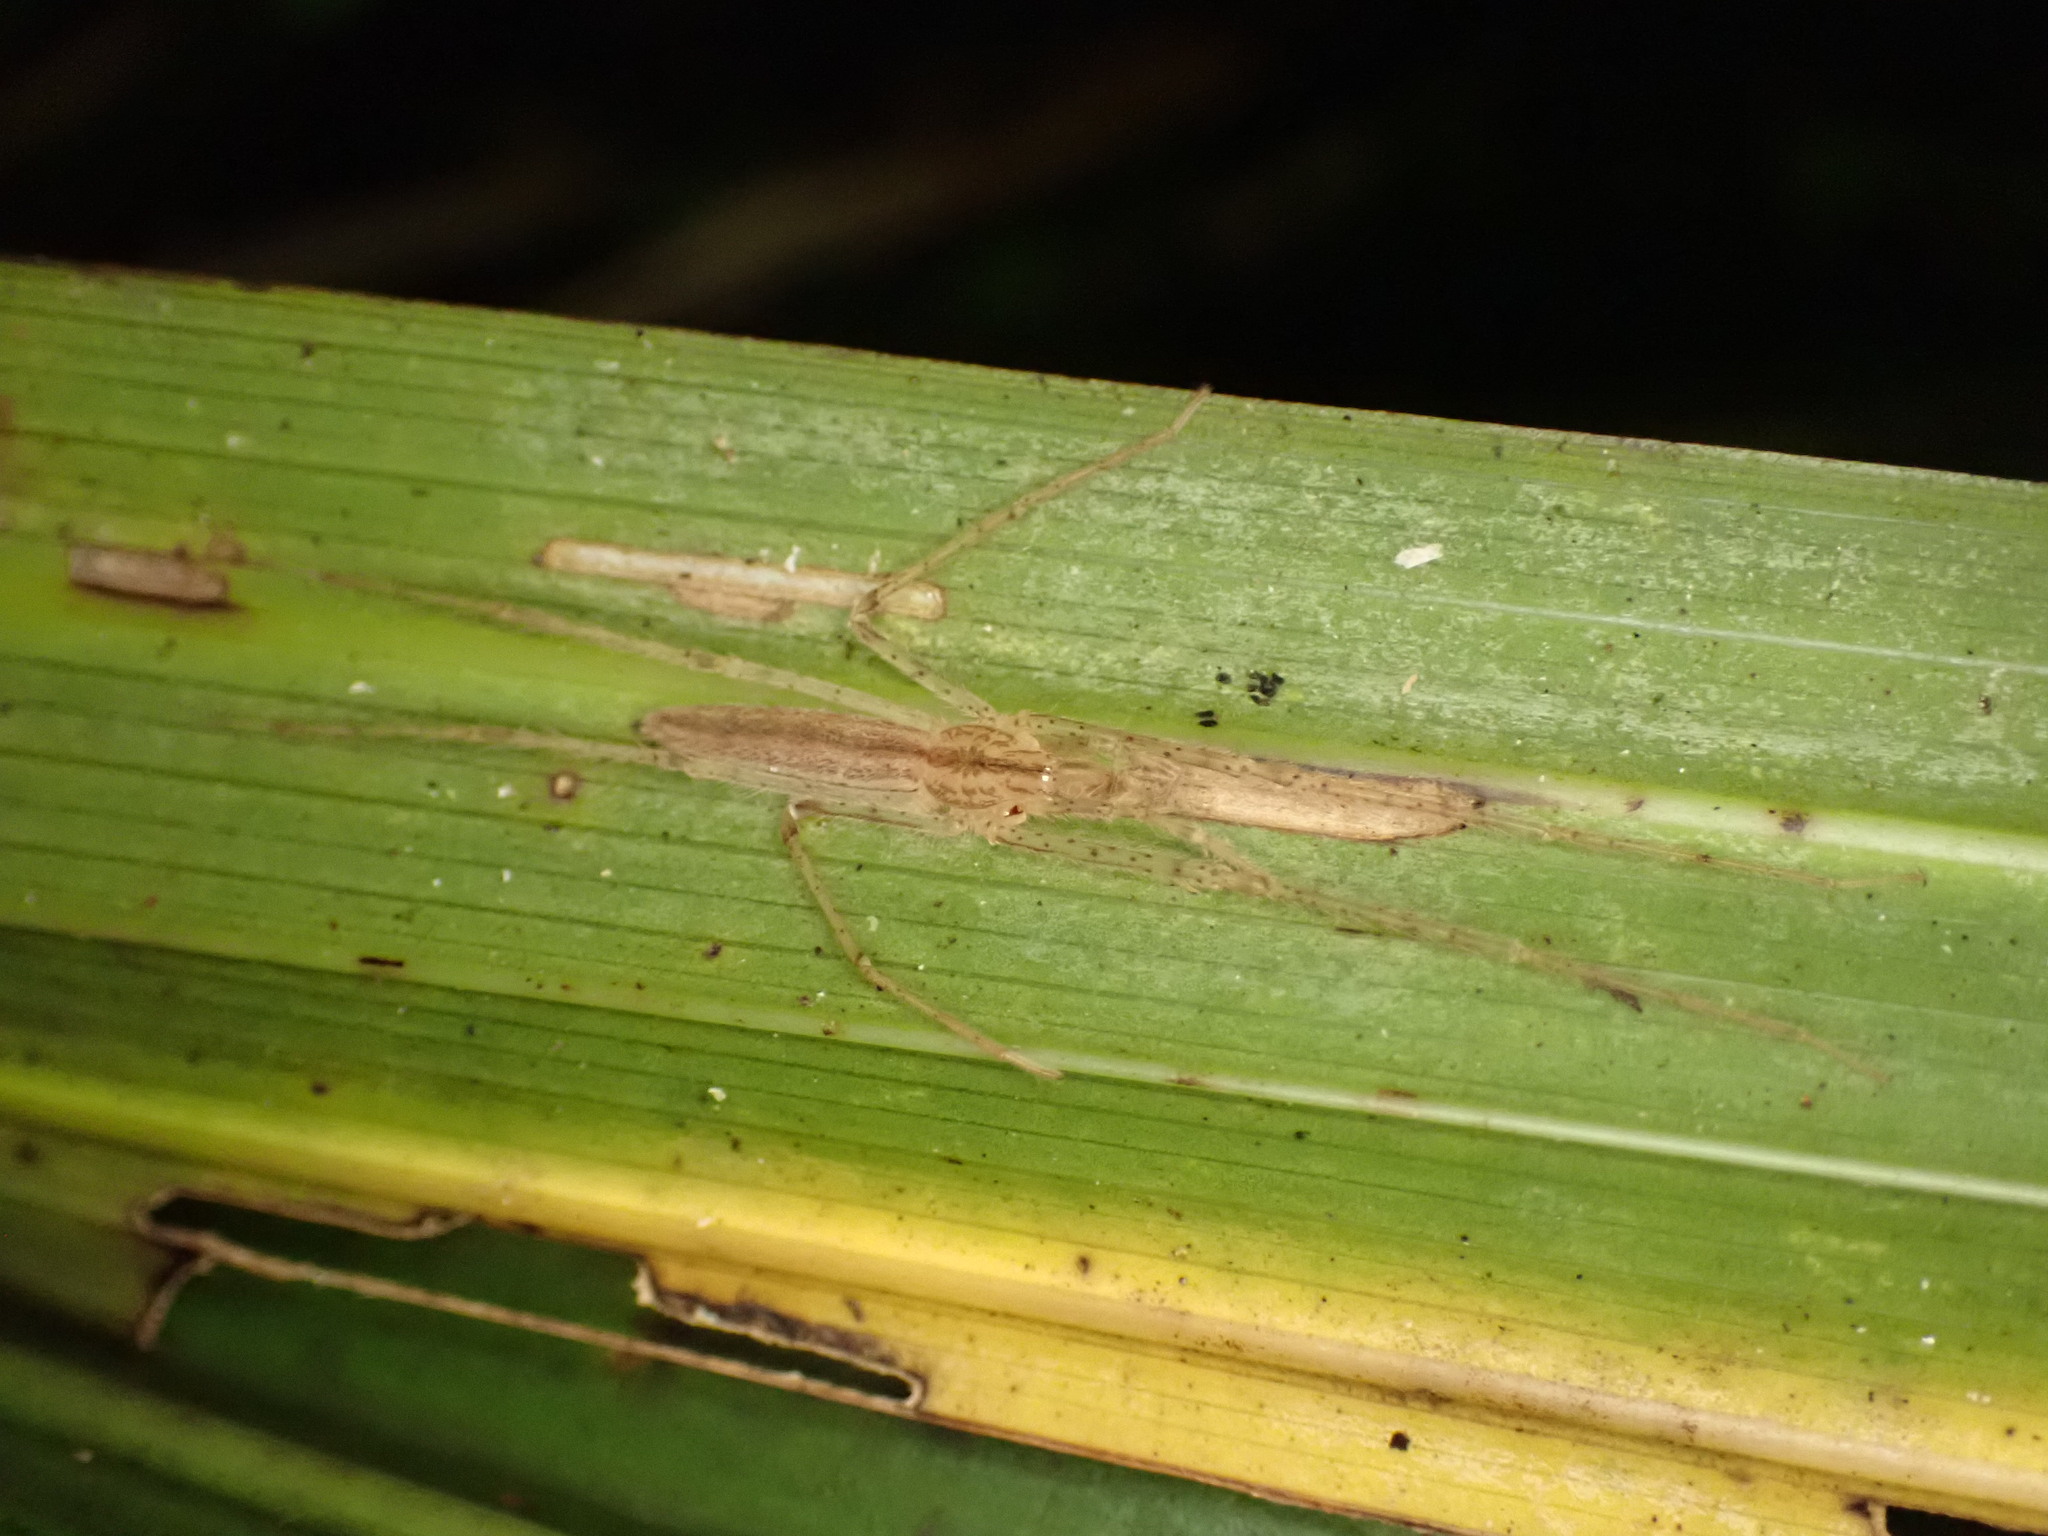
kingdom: Animalia
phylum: Arthropoda
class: Arachnida
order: Araneae
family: Desidae
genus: Ischalea
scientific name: Ischalea spinipes
